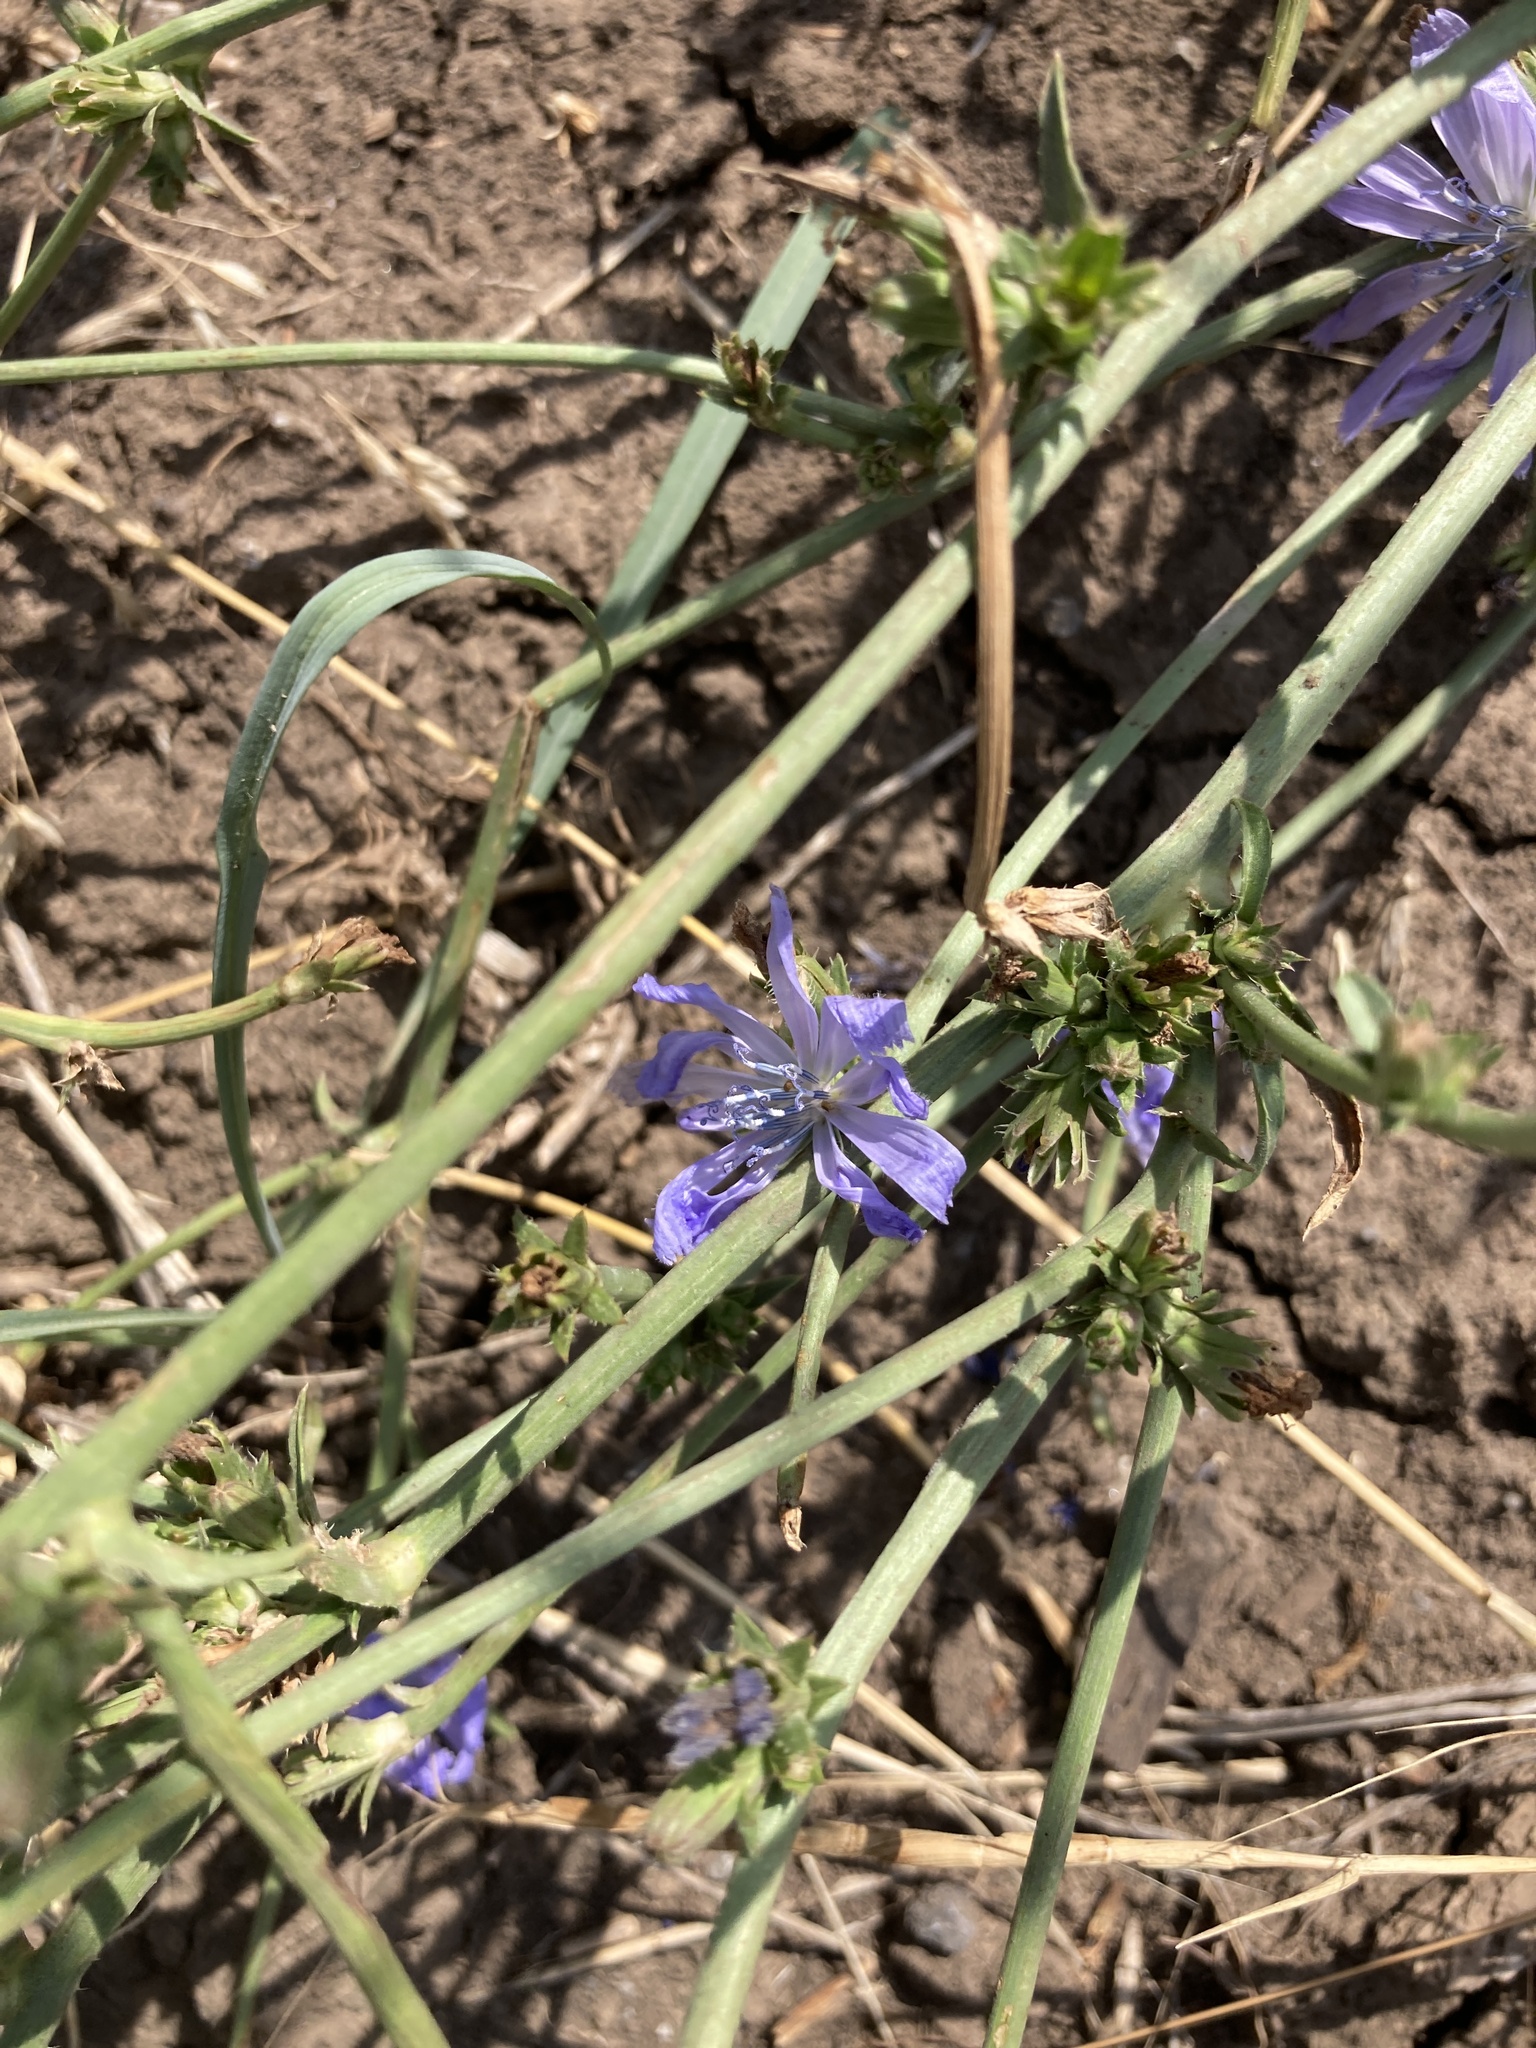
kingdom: Plantae
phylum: Tracheophyta
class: Magnoliopsida
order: Asterales
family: Asteraceae
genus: Cichorium
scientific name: Cichorium intybus
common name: Chicory
